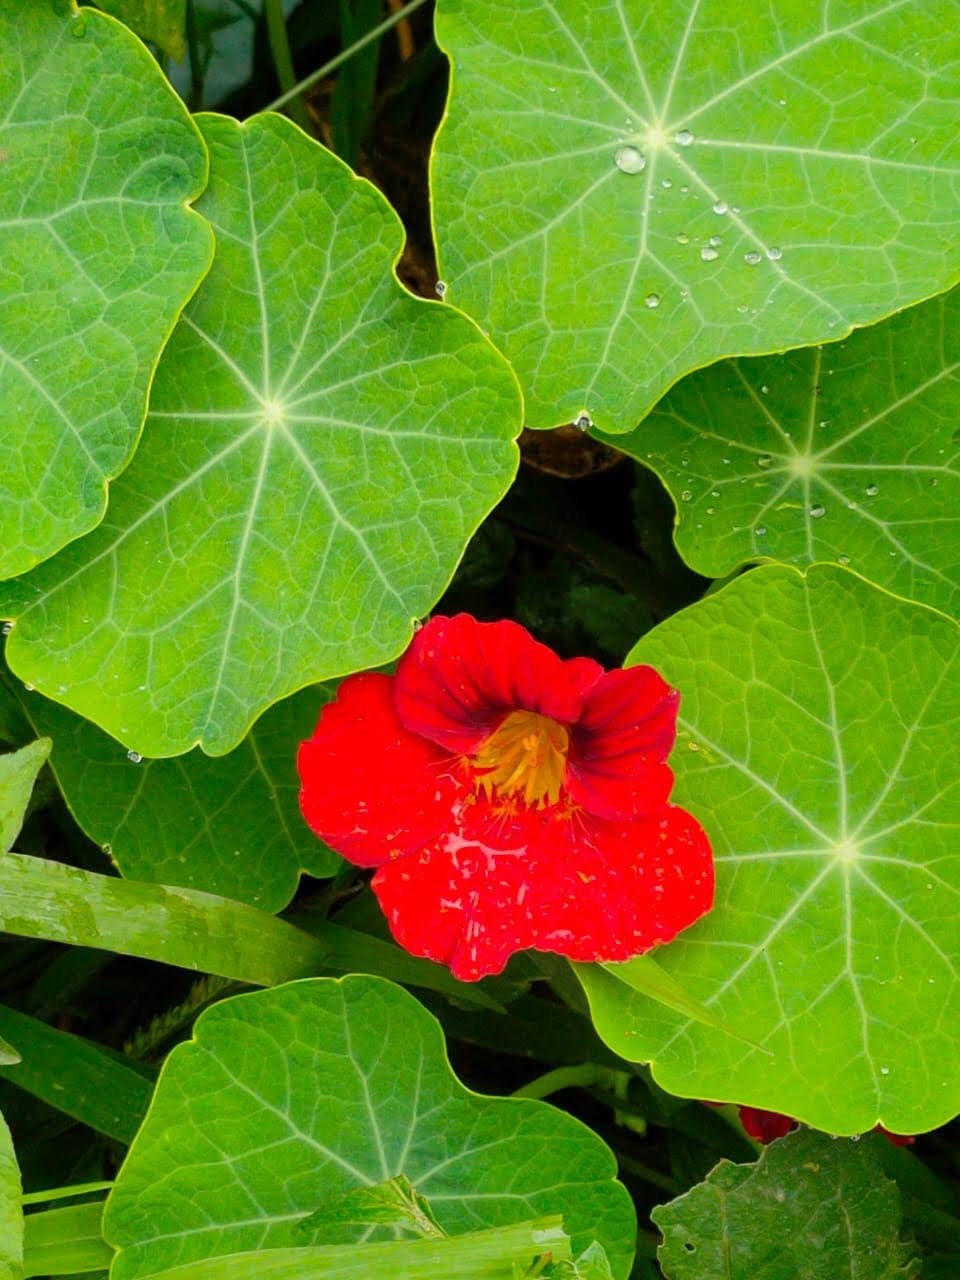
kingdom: Plantae
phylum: Tracheophyta
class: Magnoliopsida
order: Brassicales
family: Tropaeolaceae
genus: Tropaeolum
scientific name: Tropaeolum majus
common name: Nasturtium
